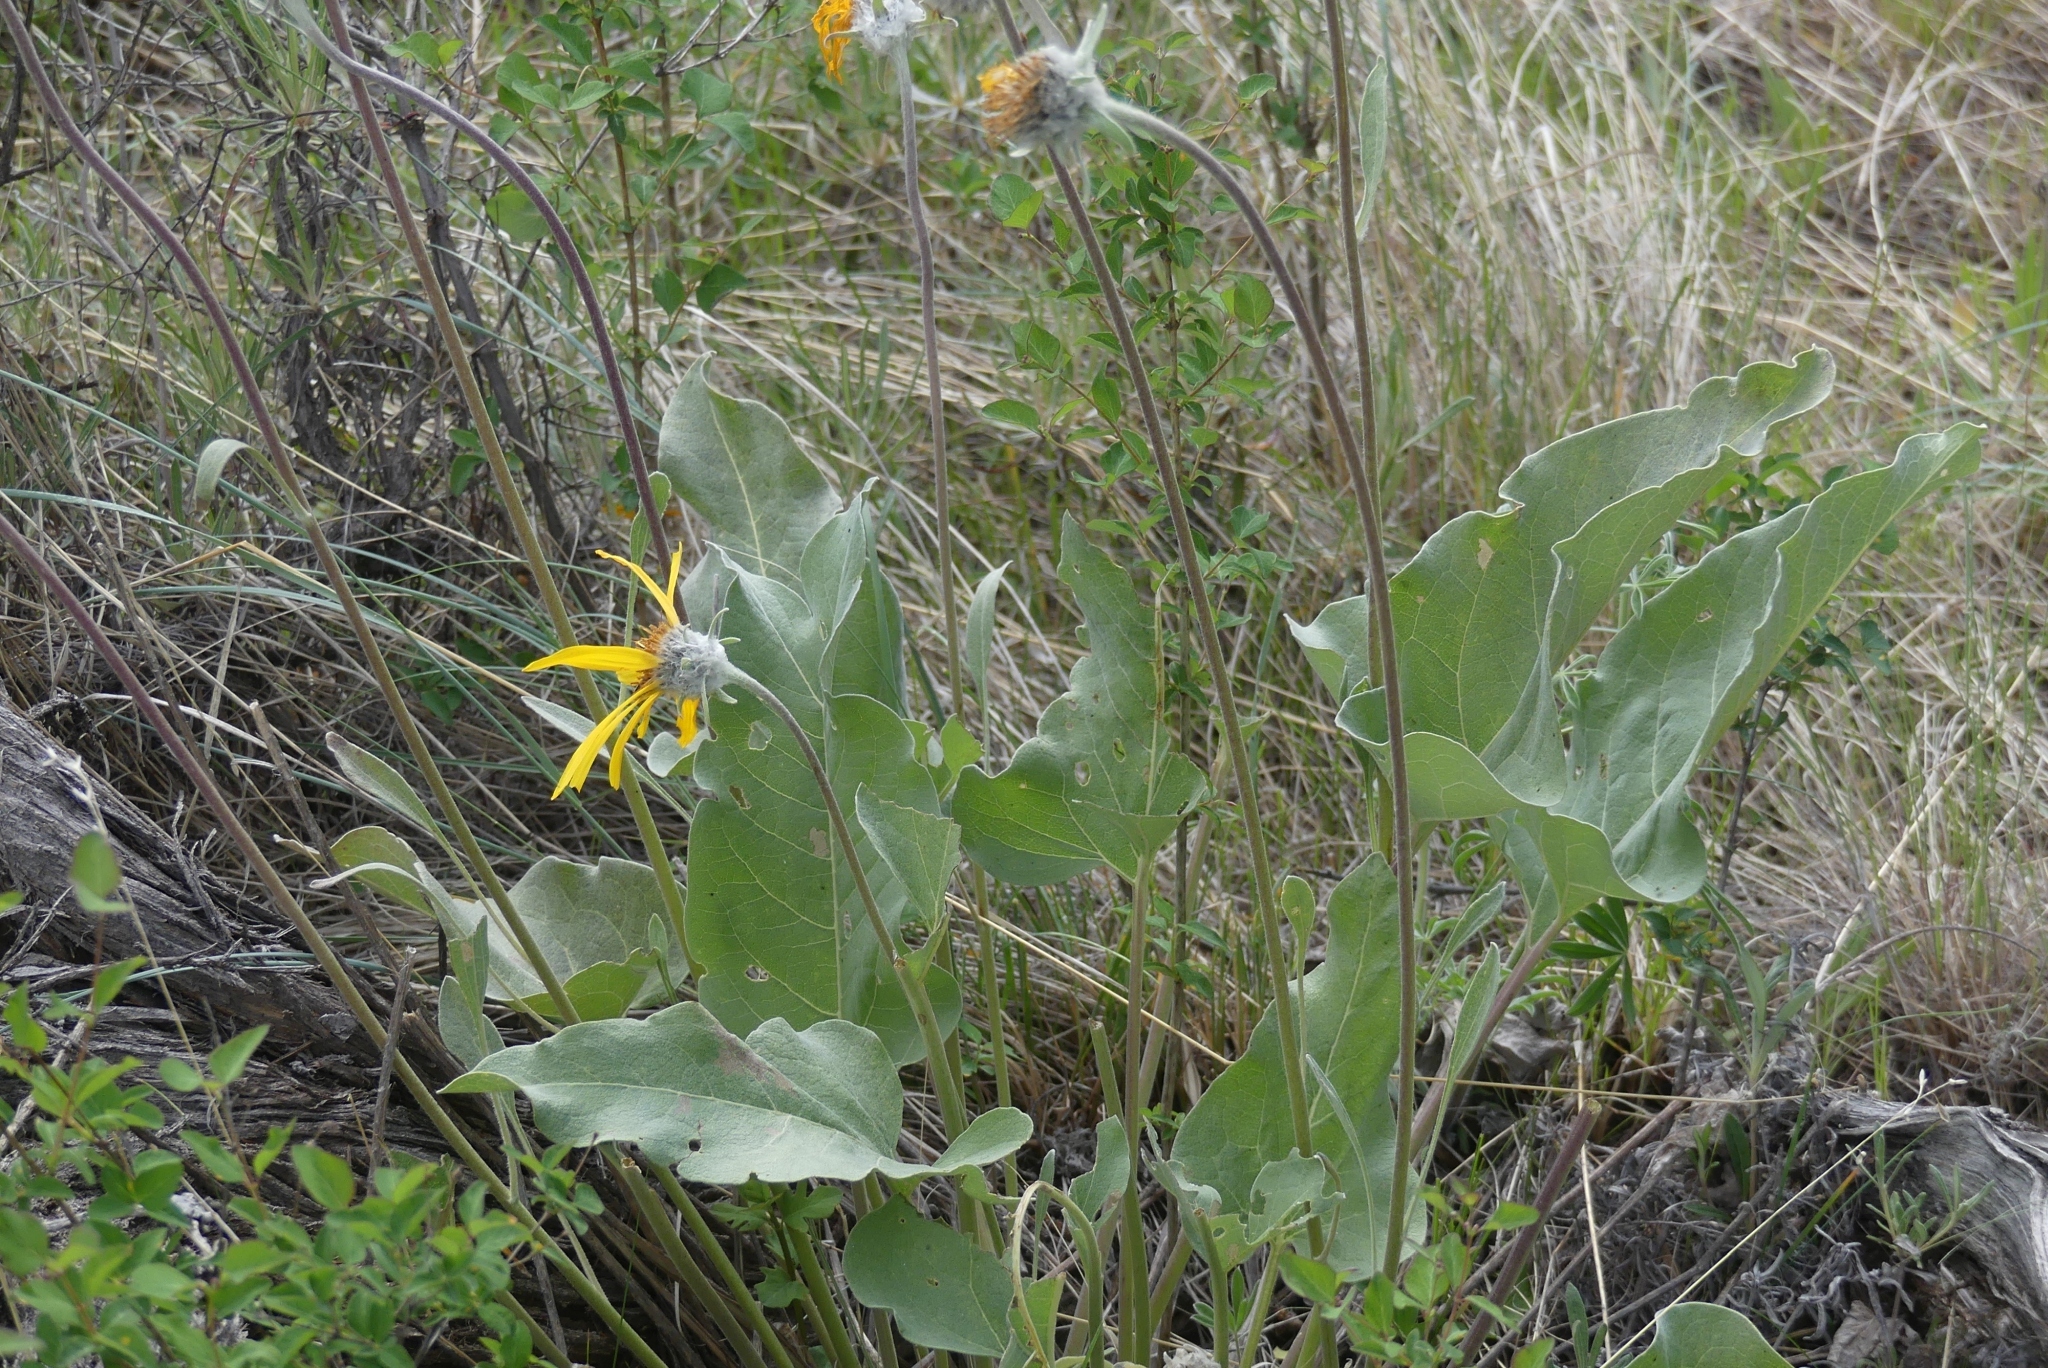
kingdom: Plantae
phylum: Tracheophyta
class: Magnoliopsida
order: Asterales
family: Asteraceae
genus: Wyethia
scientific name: Wyethia sagittata
